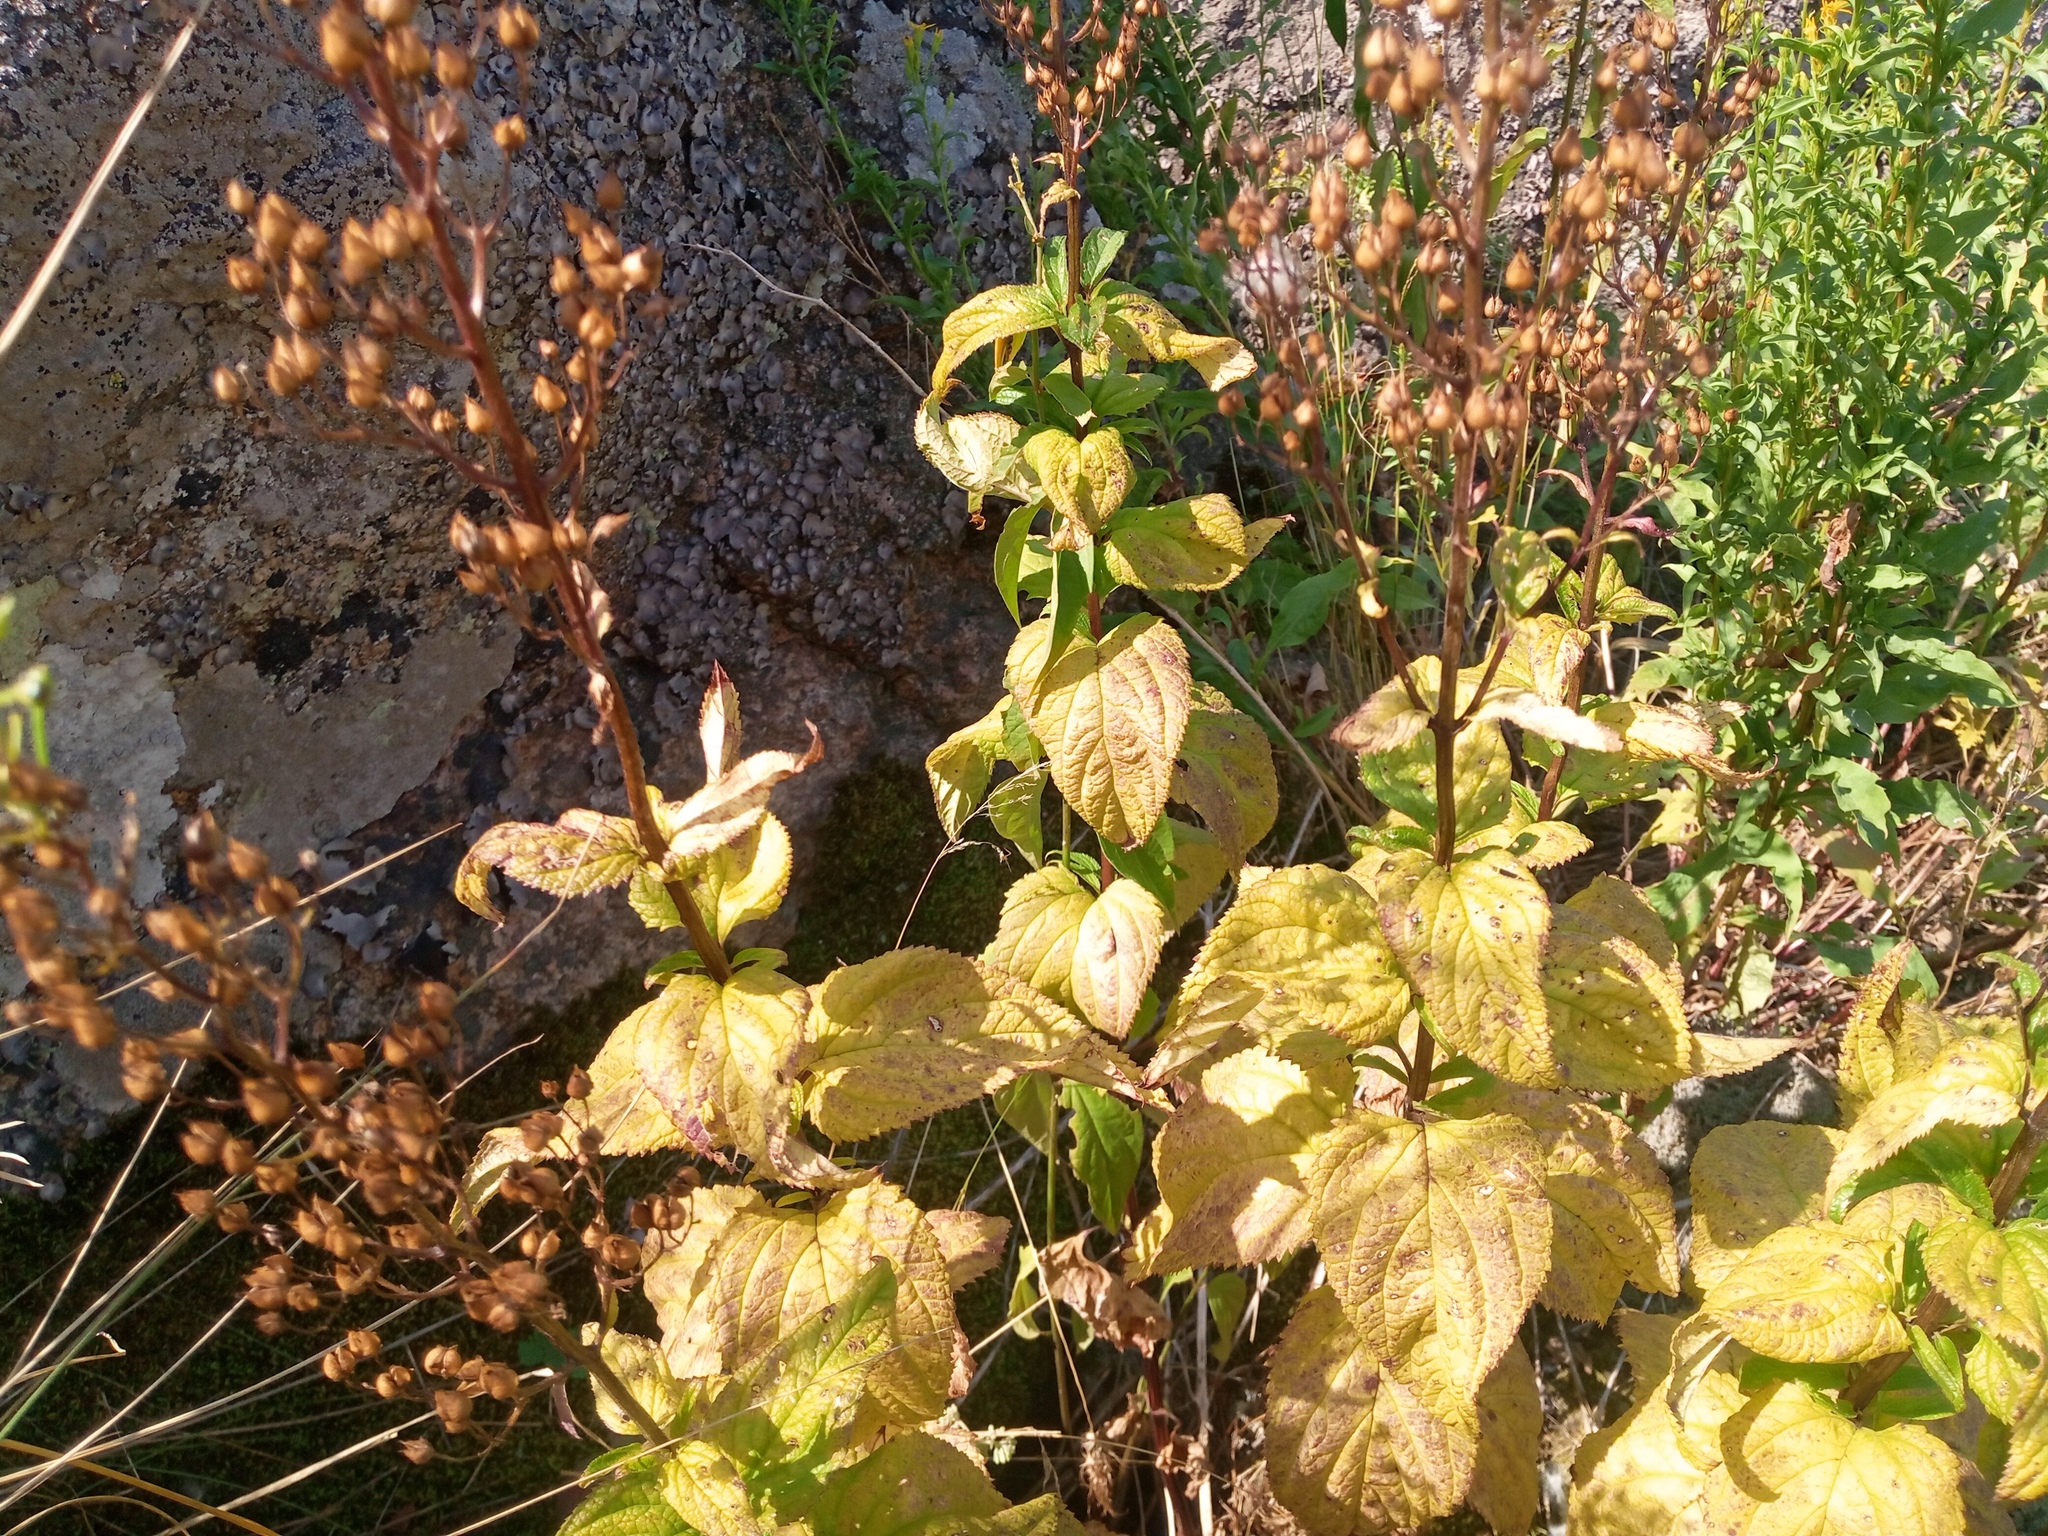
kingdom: Plantae
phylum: Tracheophyta
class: Magnoliopsida
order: Lamiales
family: Scrophulariaceae
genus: Scrophularia
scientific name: Scrophularia nodosa
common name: Common figwort
